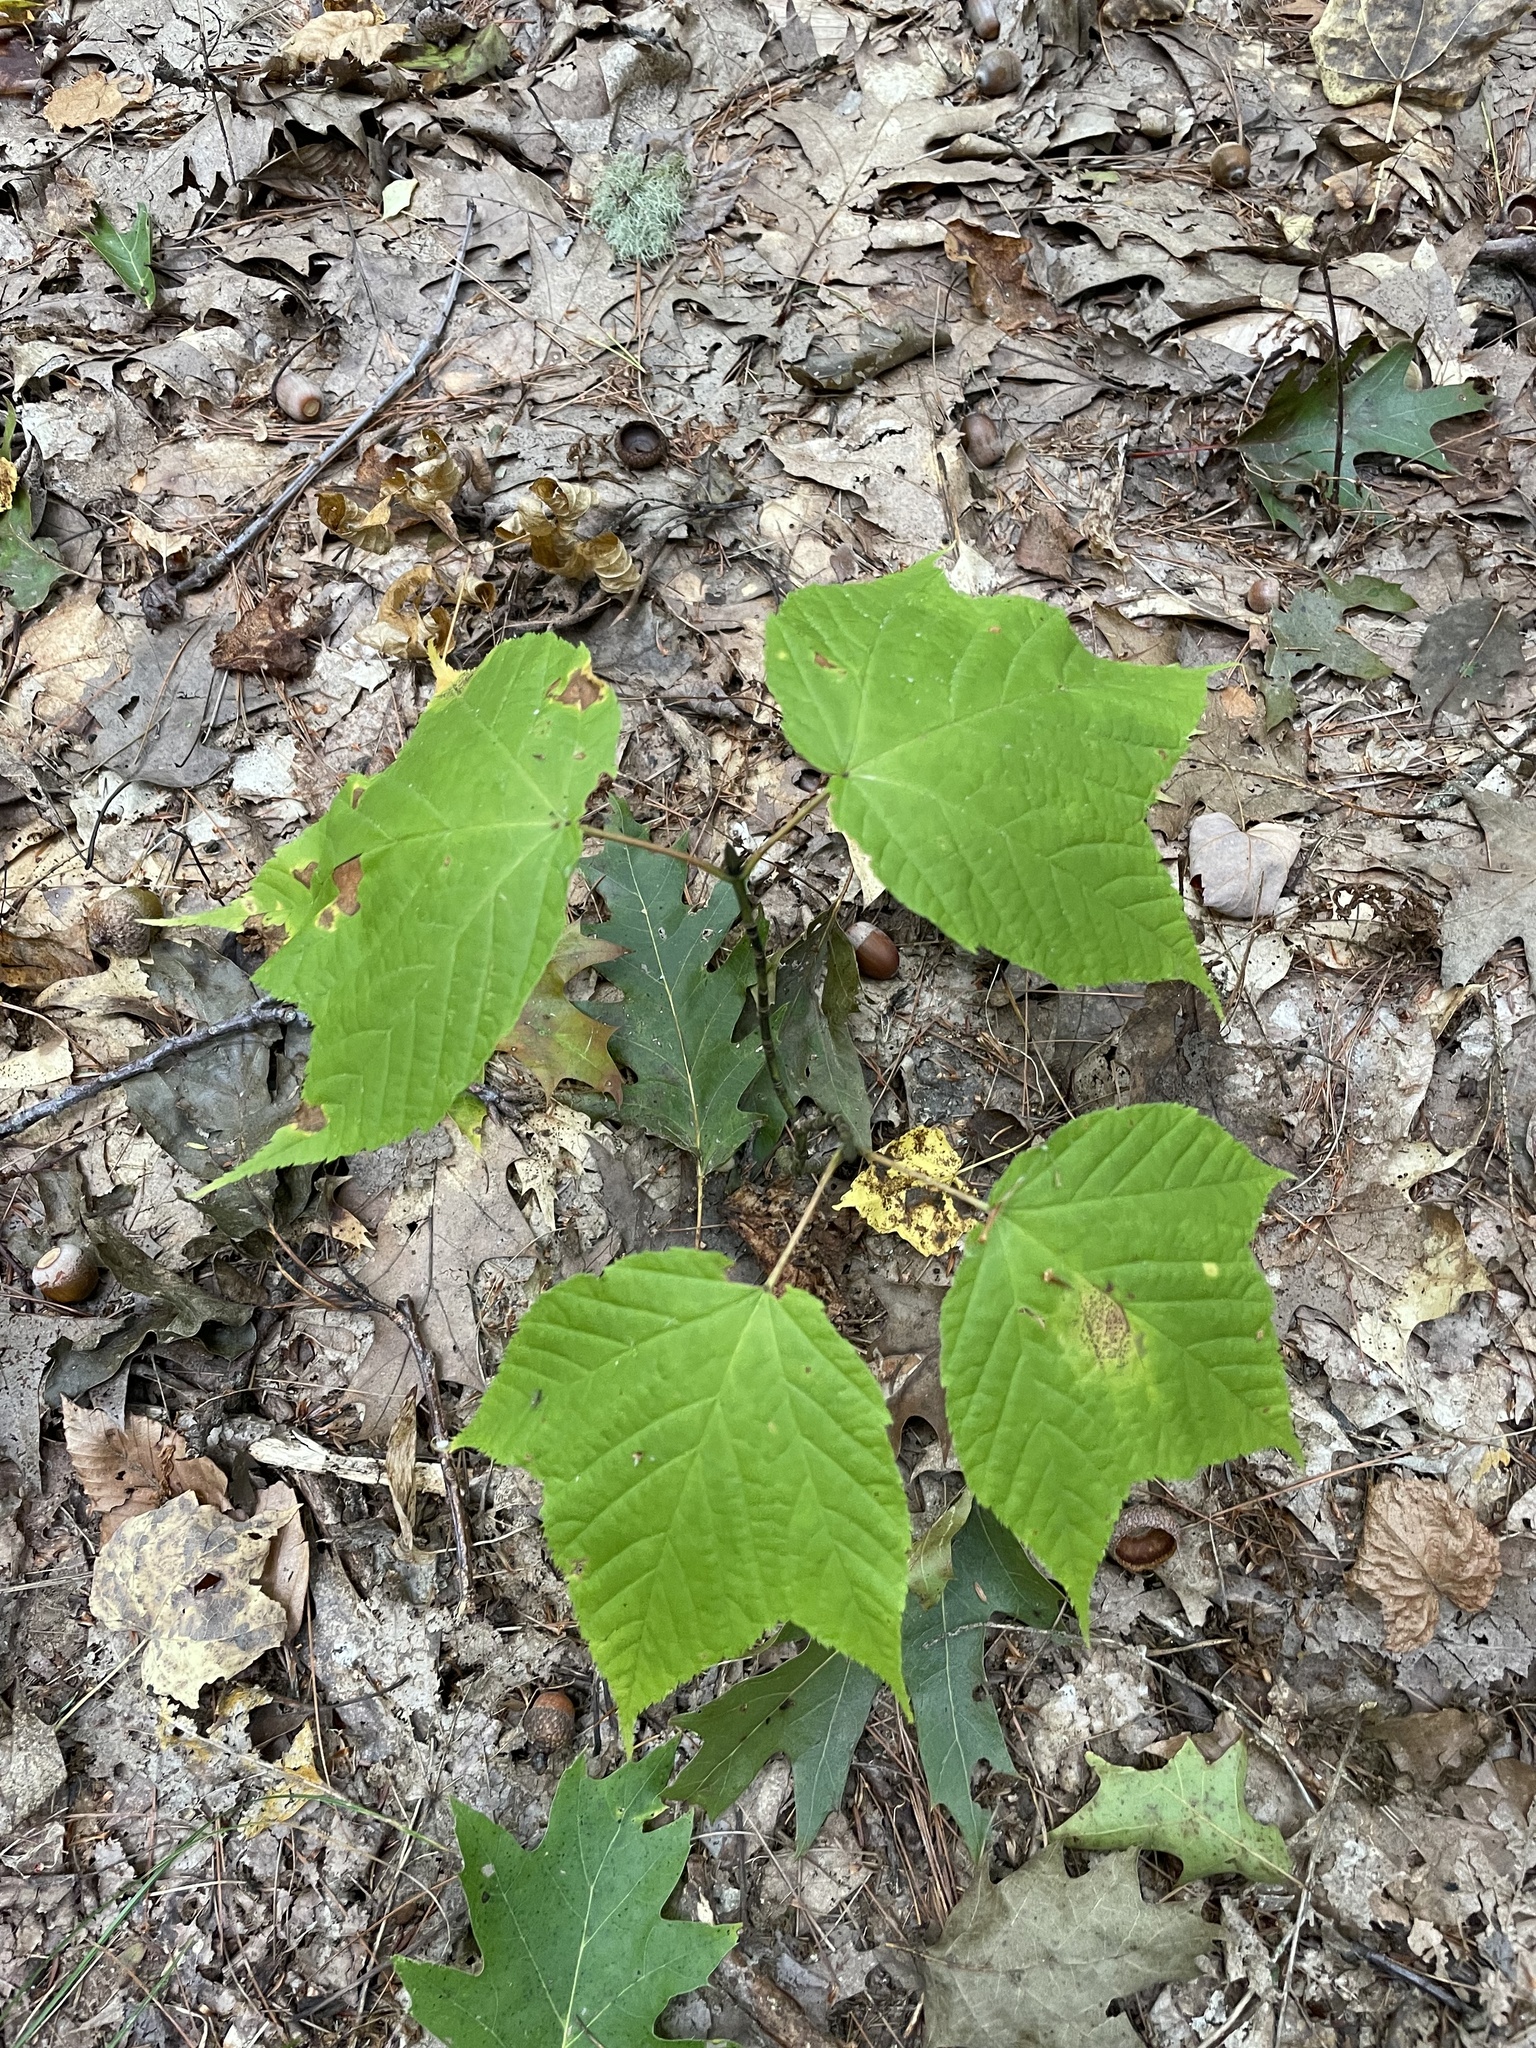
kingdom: Plantae
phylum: Tracheophyta
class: Magnoliopsida
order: Sapindales
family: Sapindaceae
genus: Acer
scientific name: Acer pensylvanicum
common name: Moosewood
